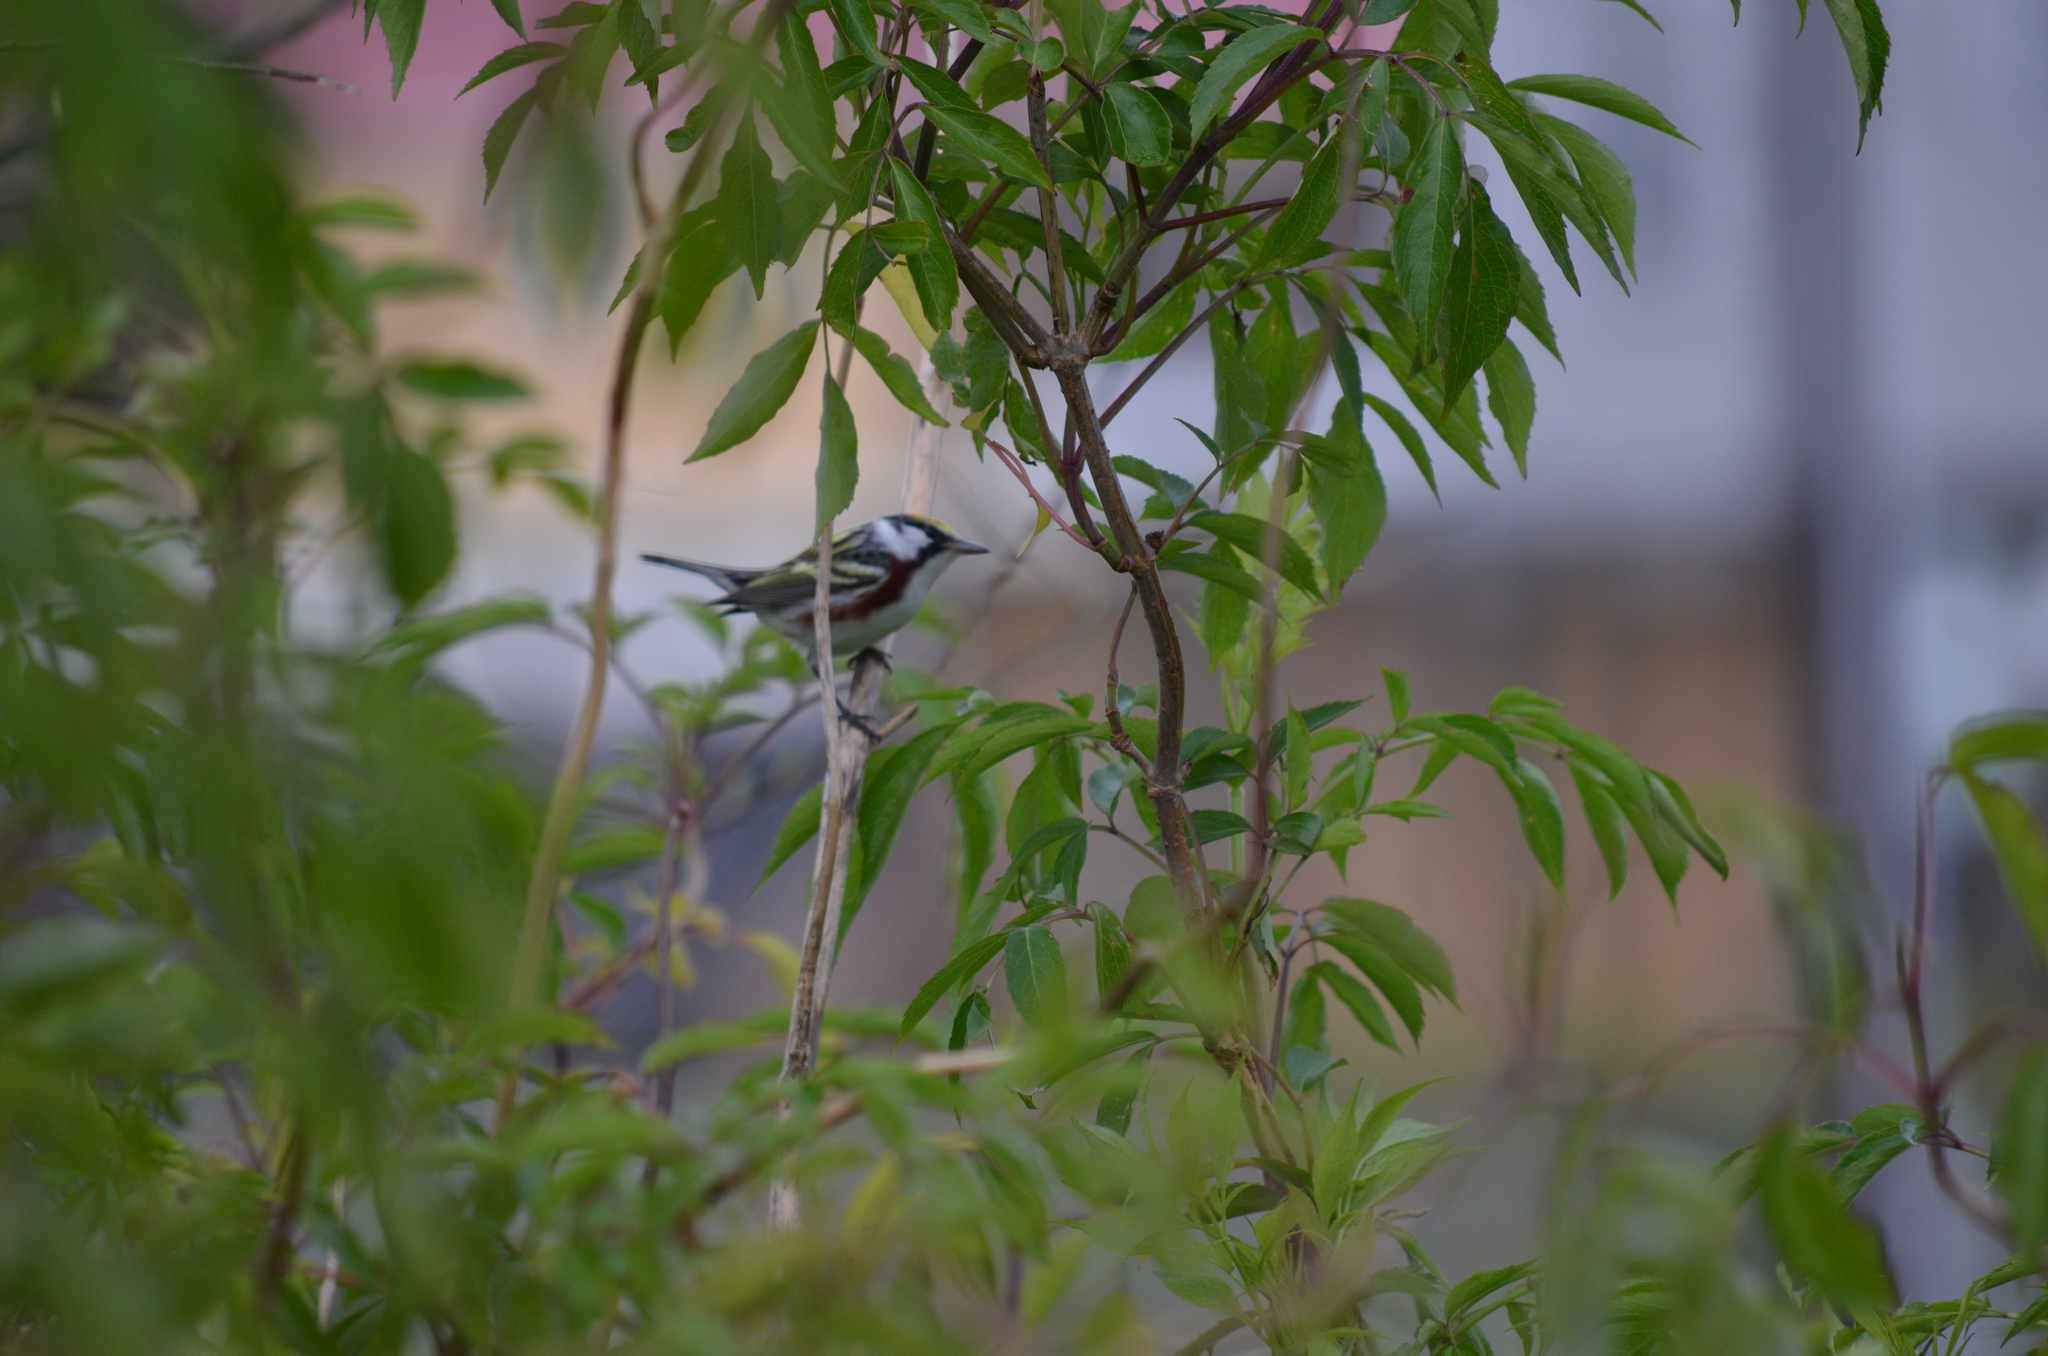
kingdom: Animalia
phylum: Chordata
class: Aves
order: Passeriformes
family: Parulidae
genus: Setophaga
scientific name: Setophaga pensylvanica
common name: Chestnut-sided warbler
